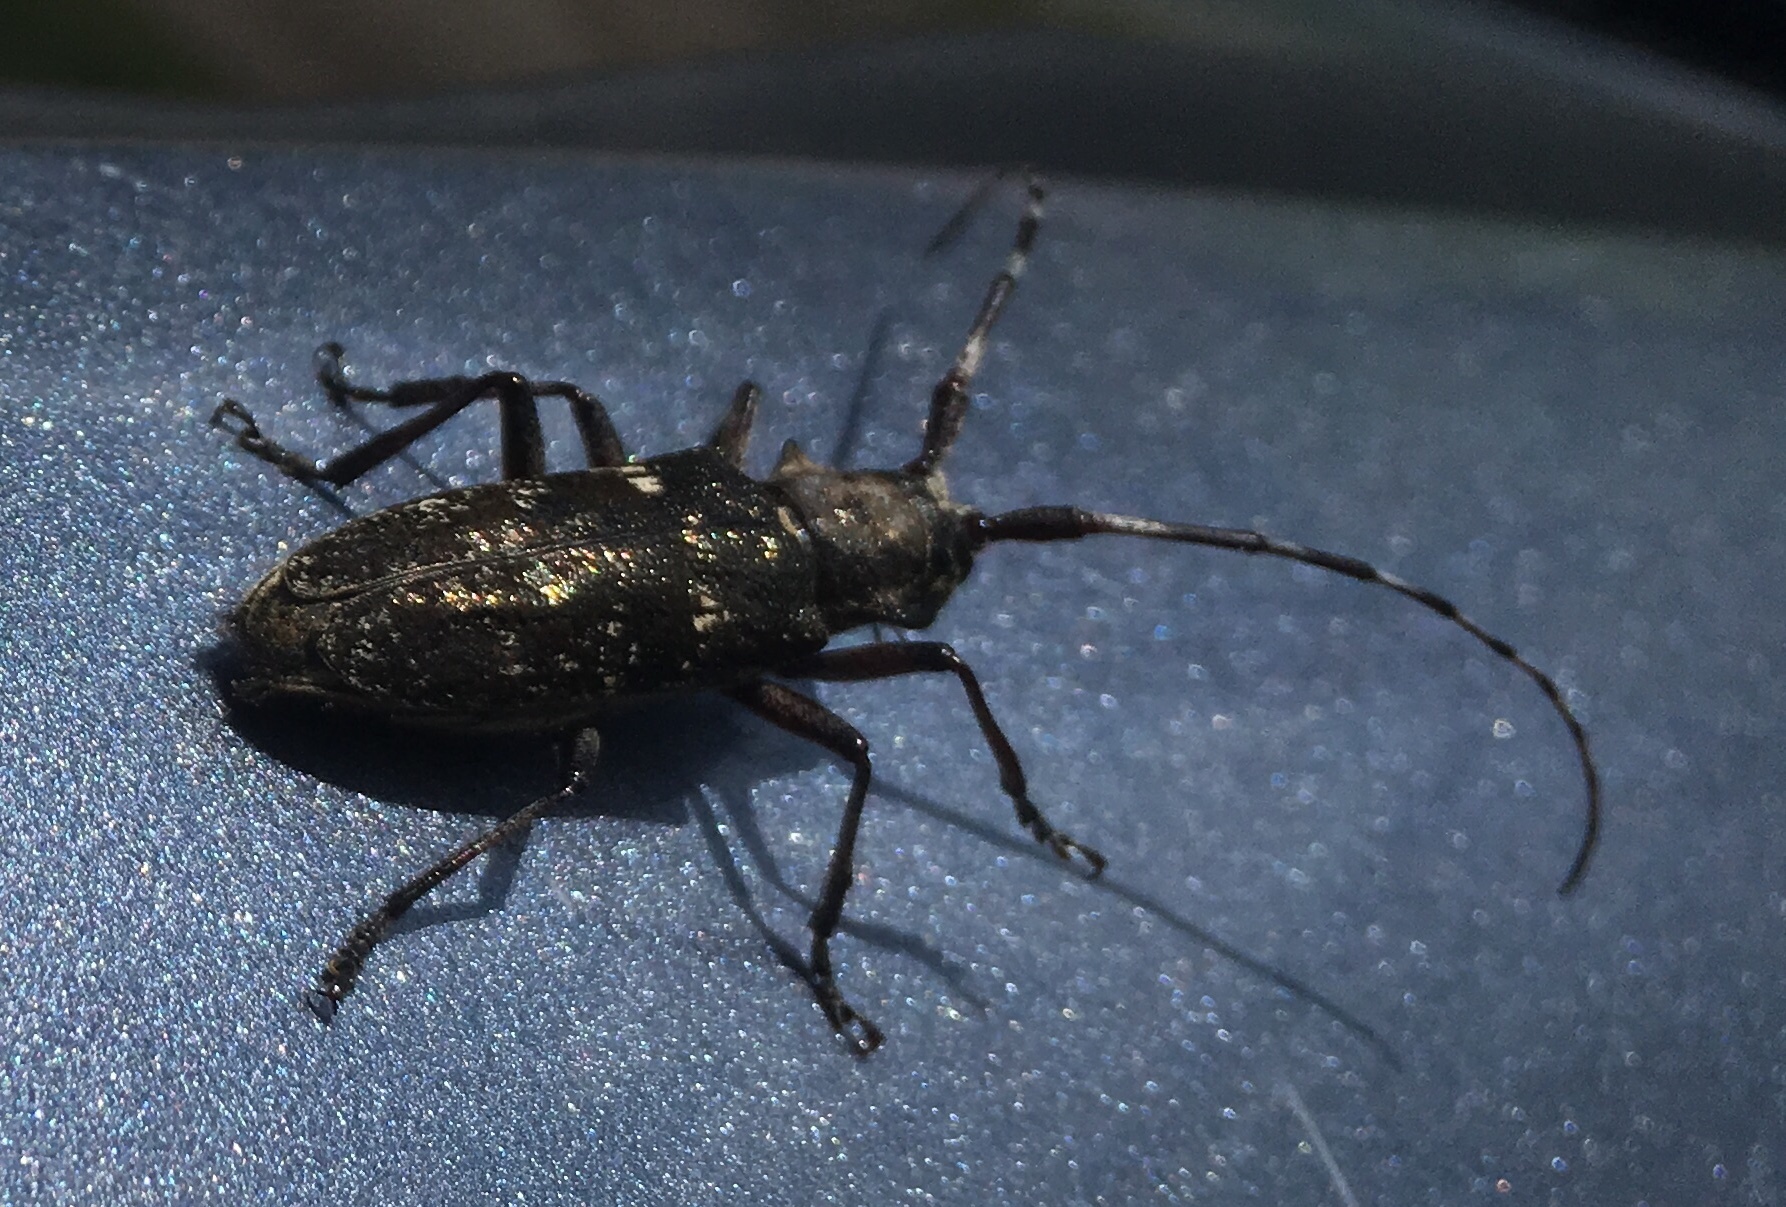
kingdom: Animalia
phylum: Arthropoda
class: Insecta
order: Coleoptera
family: Cerambycidae
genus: Monochamus
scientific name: Monochamus scutellatus
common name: White-spotted sawyer beetle
